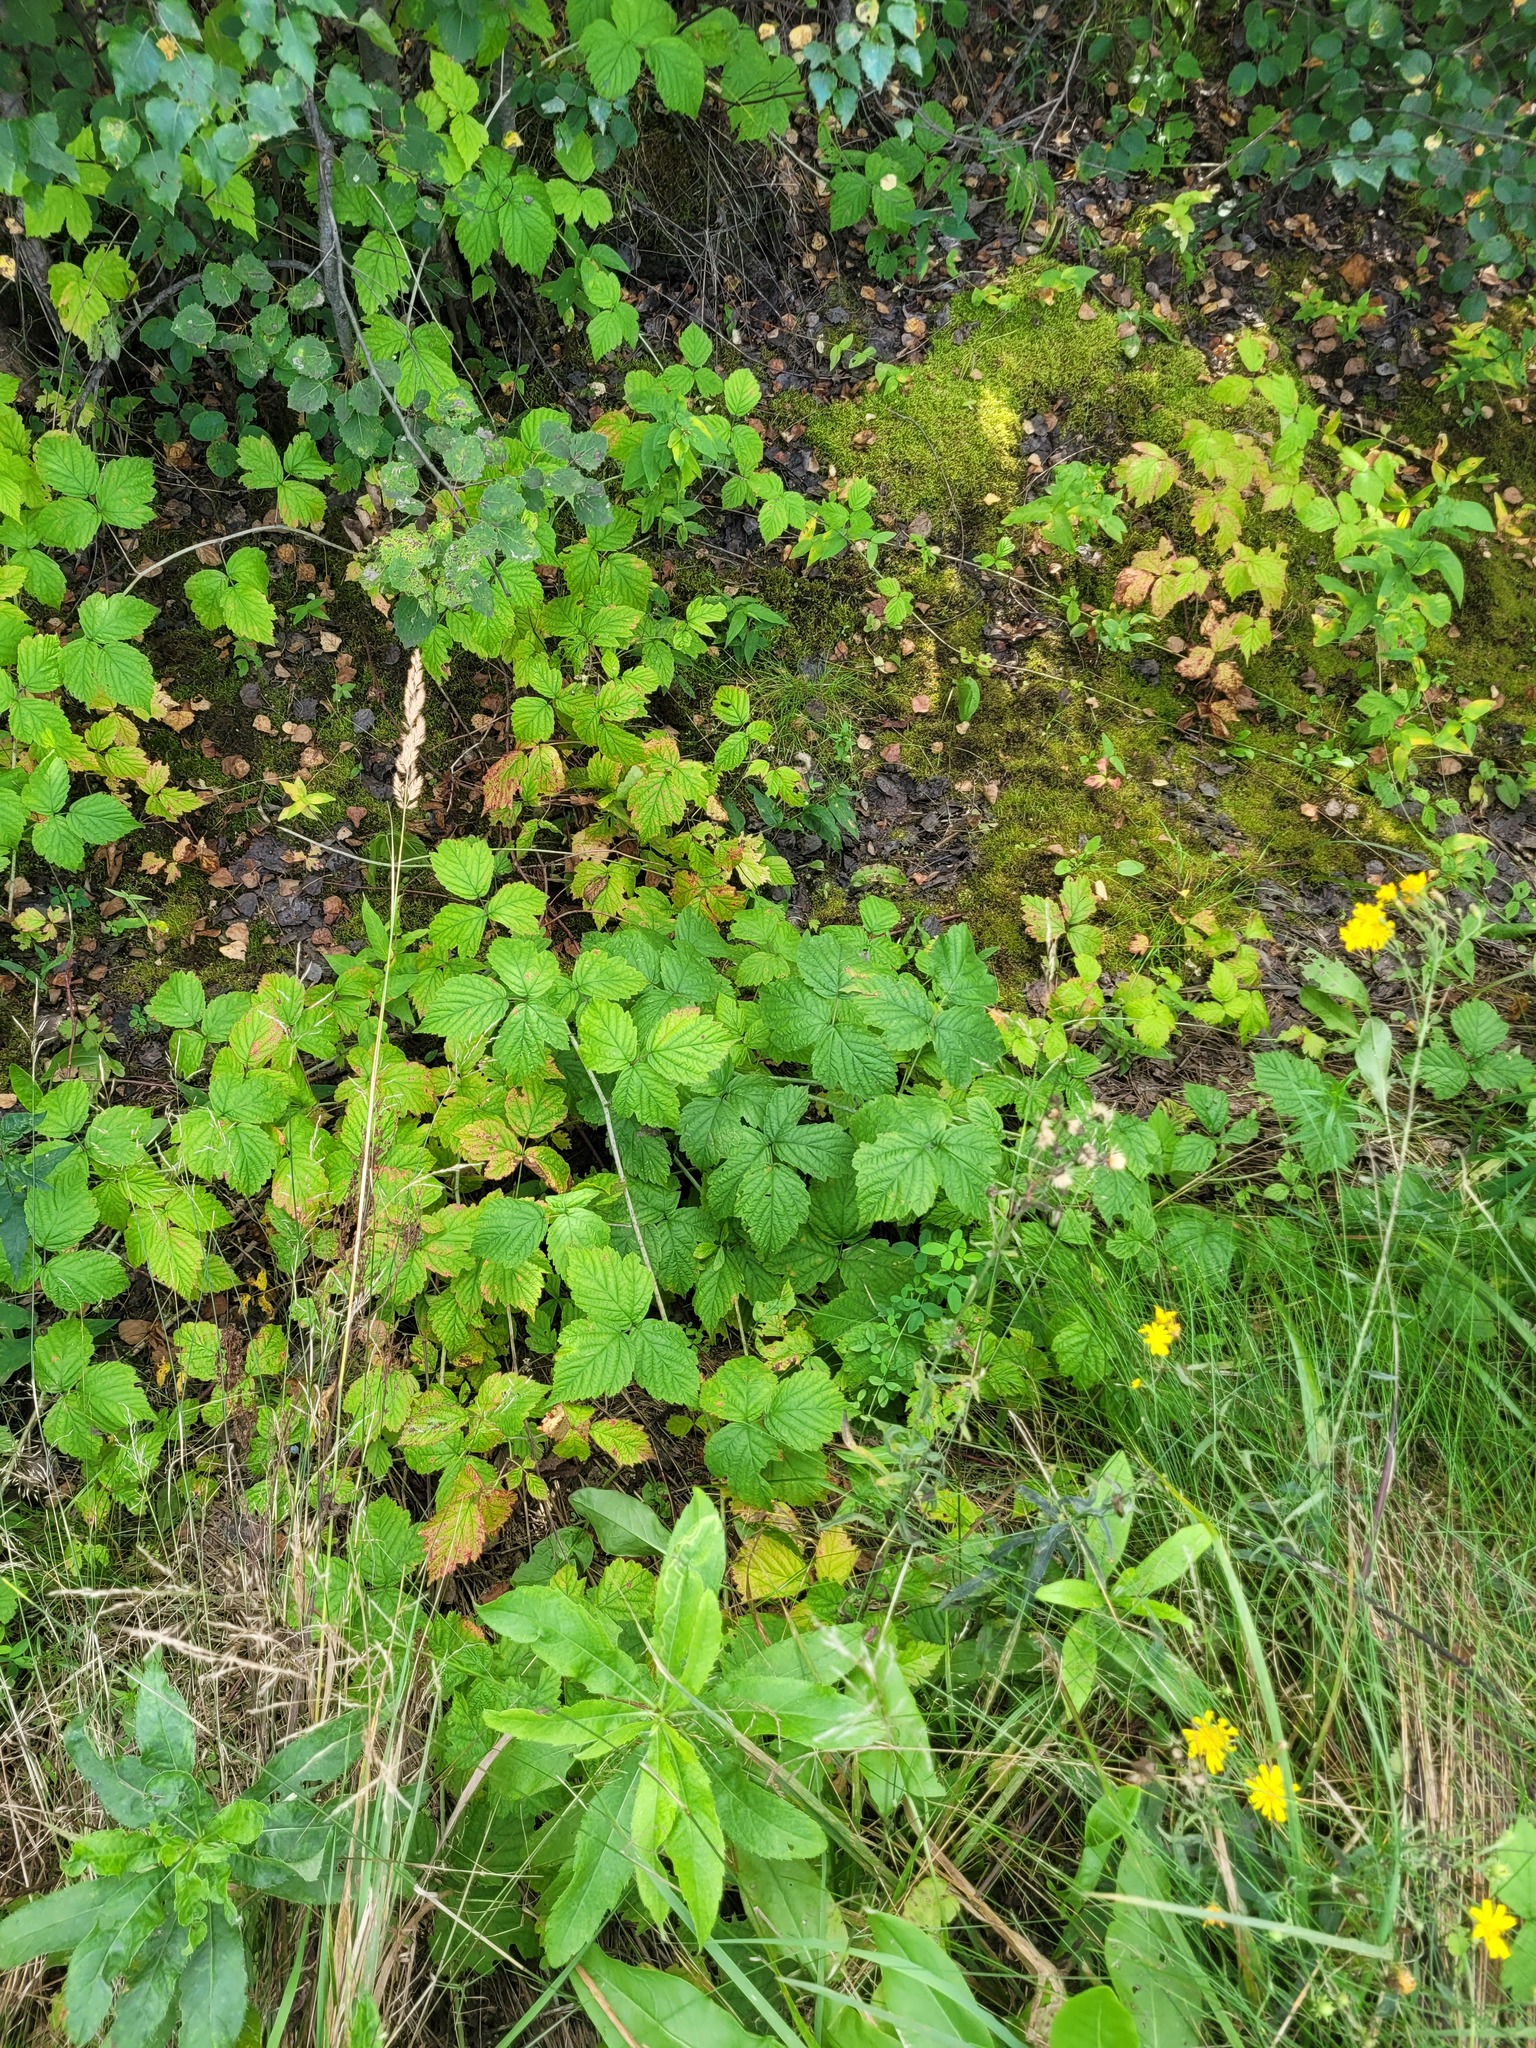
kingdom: Plantae
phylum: Tracheophyta
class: Magnoliopsida
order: Rosales
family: Rosaceae
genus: Rubus
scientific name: Rubus caesius
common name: Dewberry
